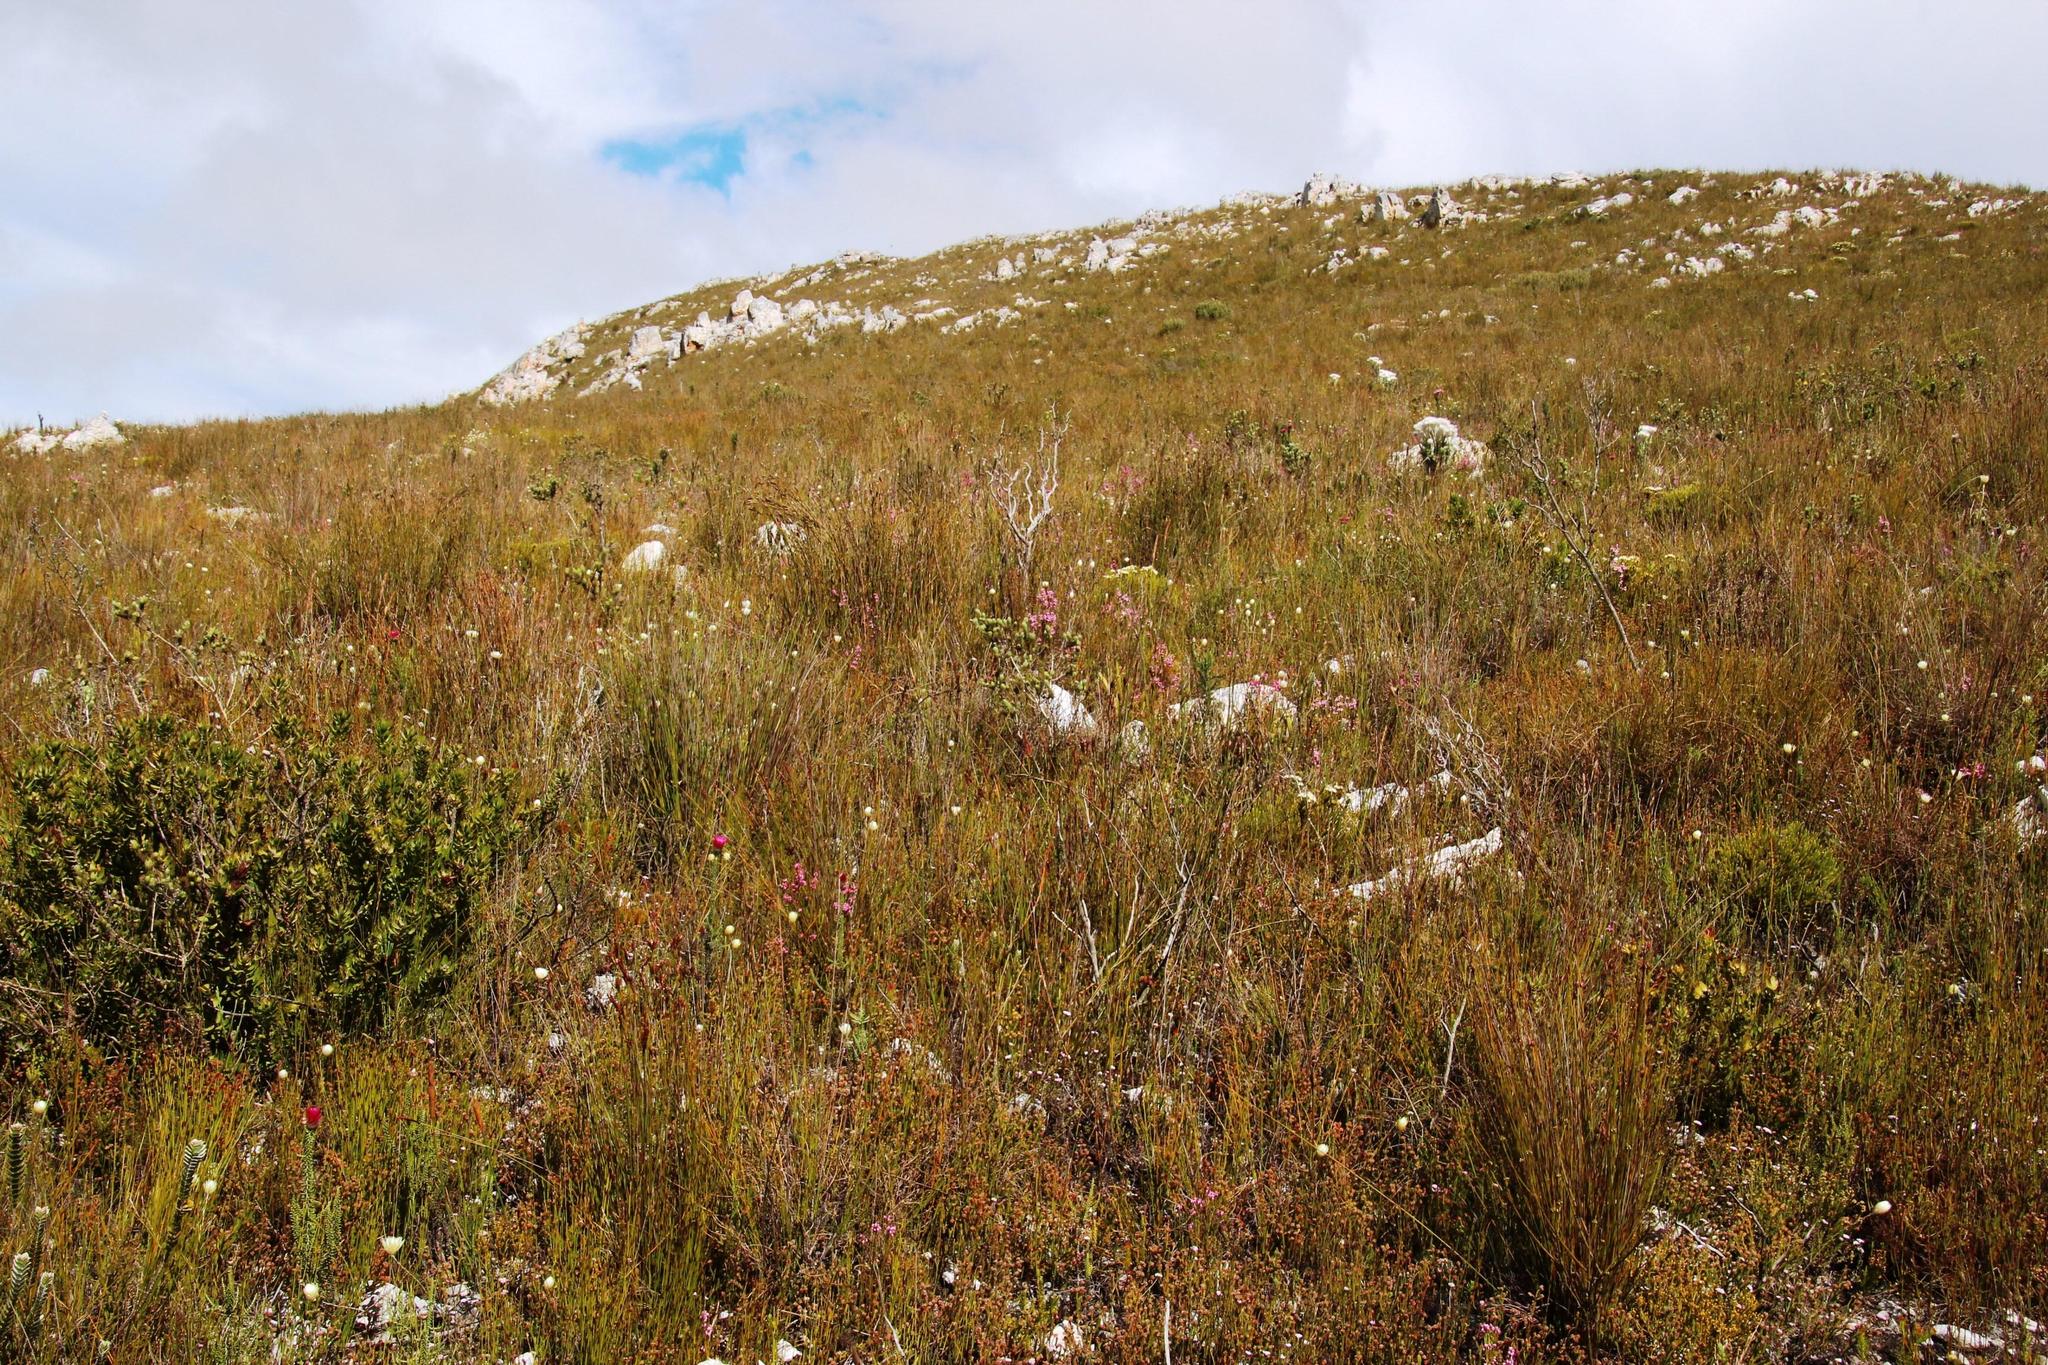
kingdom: Plantae
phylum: Tracheophyta
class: Magnoliopsida
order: Asterales
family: Asteraceae
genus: Edmondia
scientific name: Edmondia sesamoides
